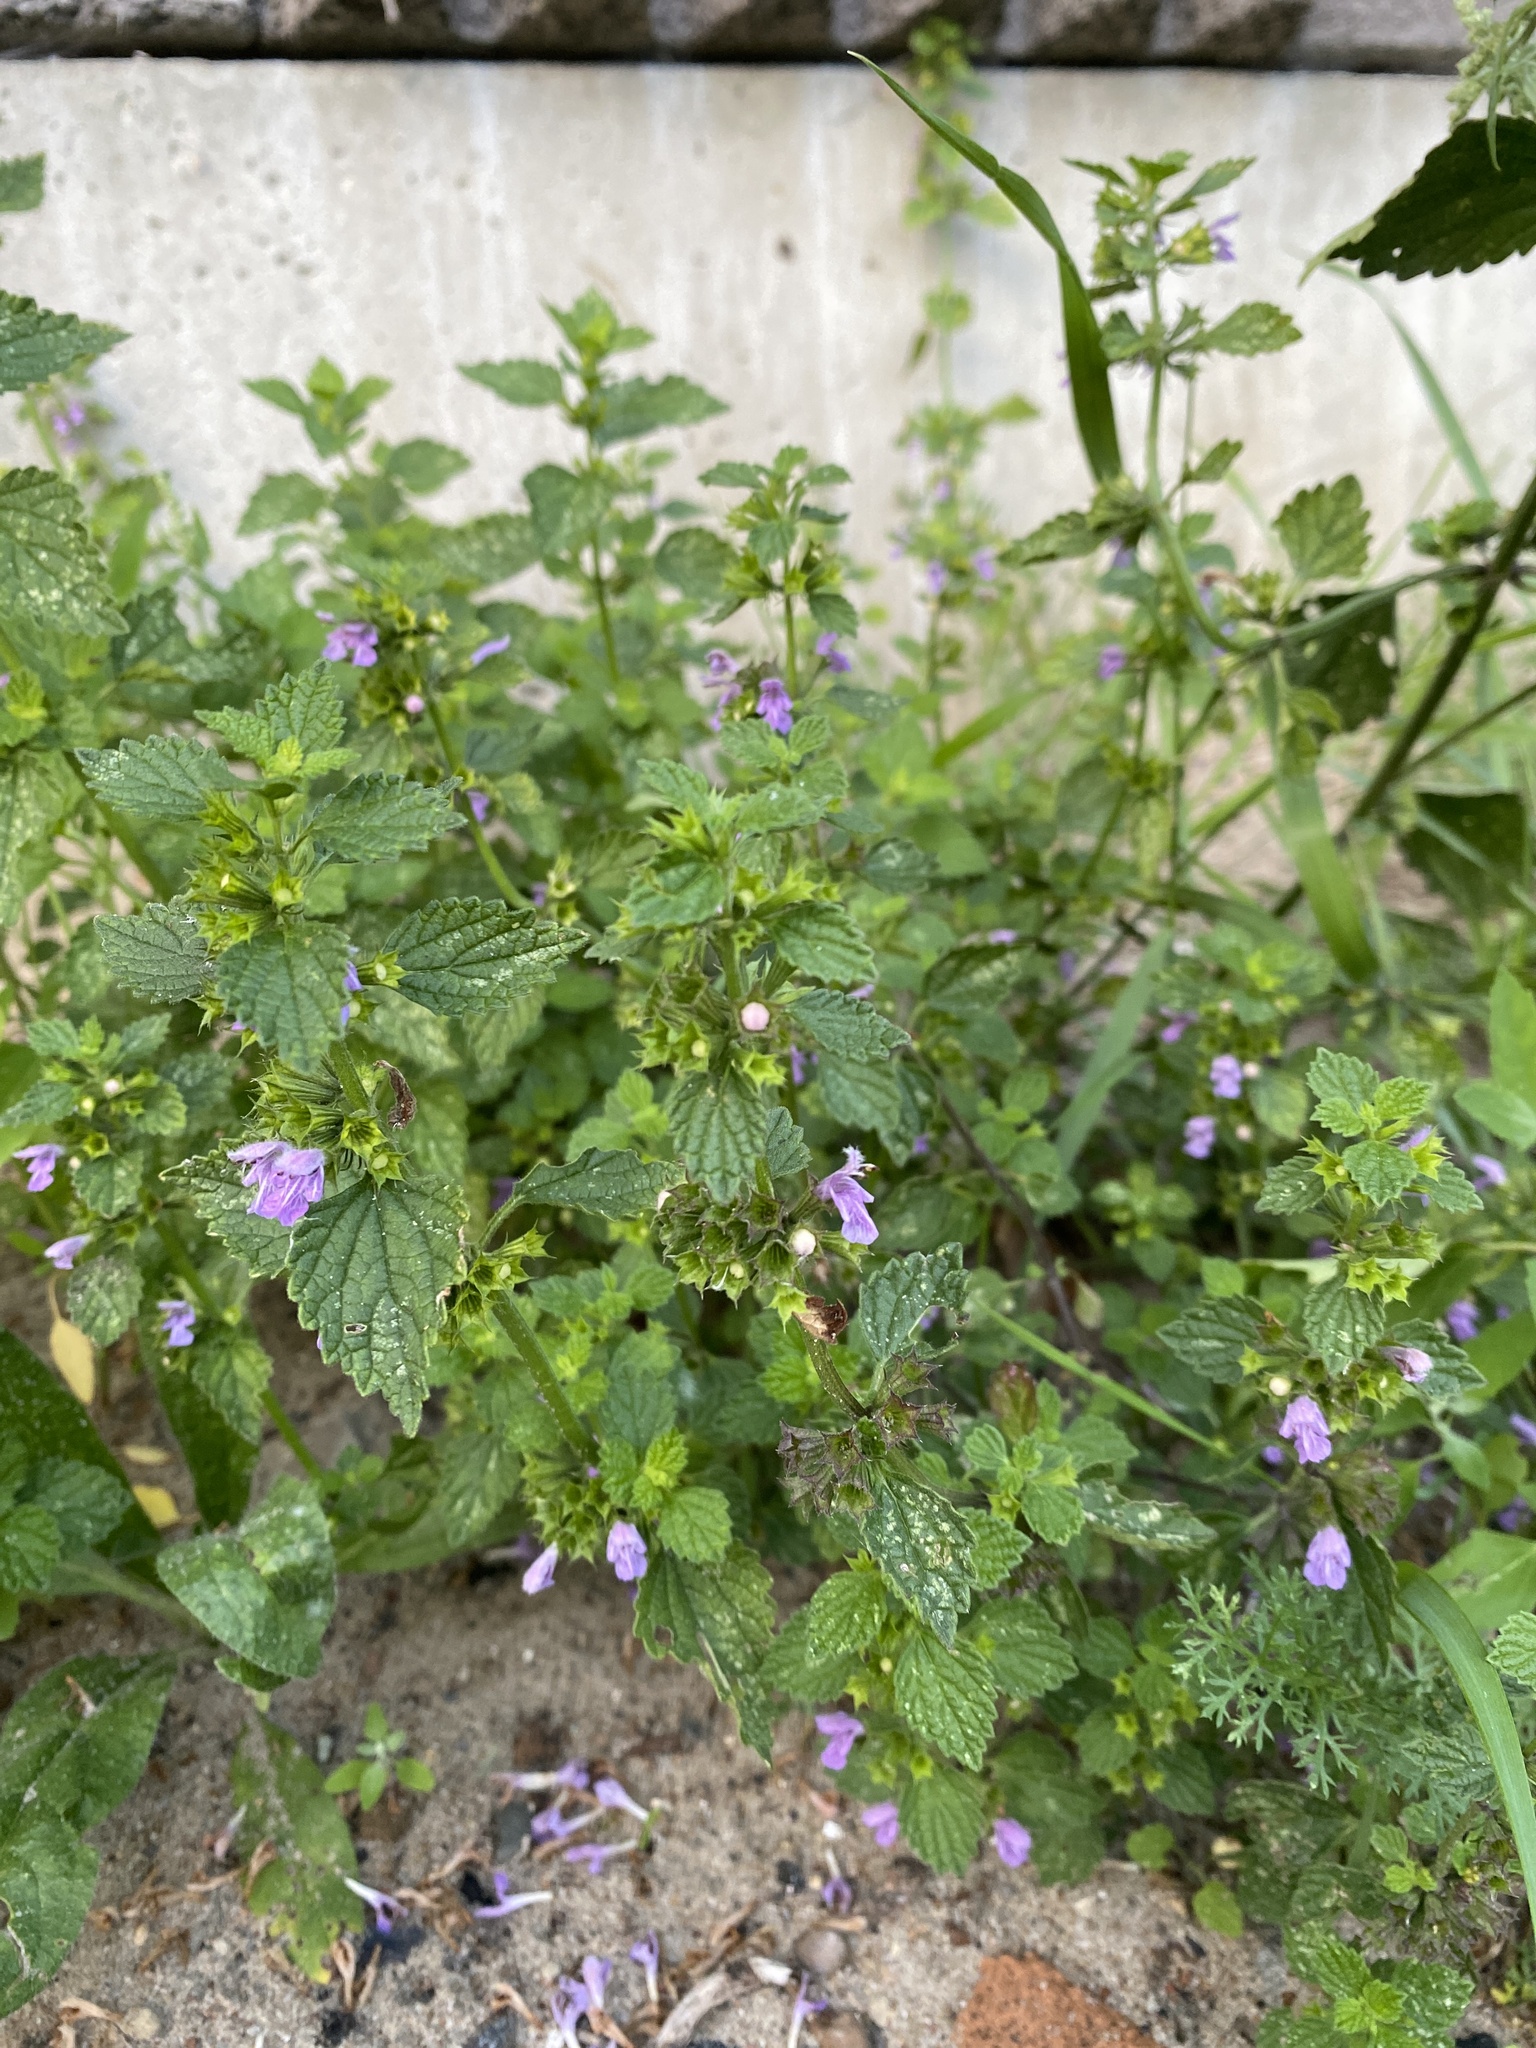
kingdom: Plantae
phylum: Tracheophyta
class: Magnoliopsida
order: Lamiales
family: Lamiaceae
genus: Ballota
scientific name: Ballota nigra
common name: Black horehound
